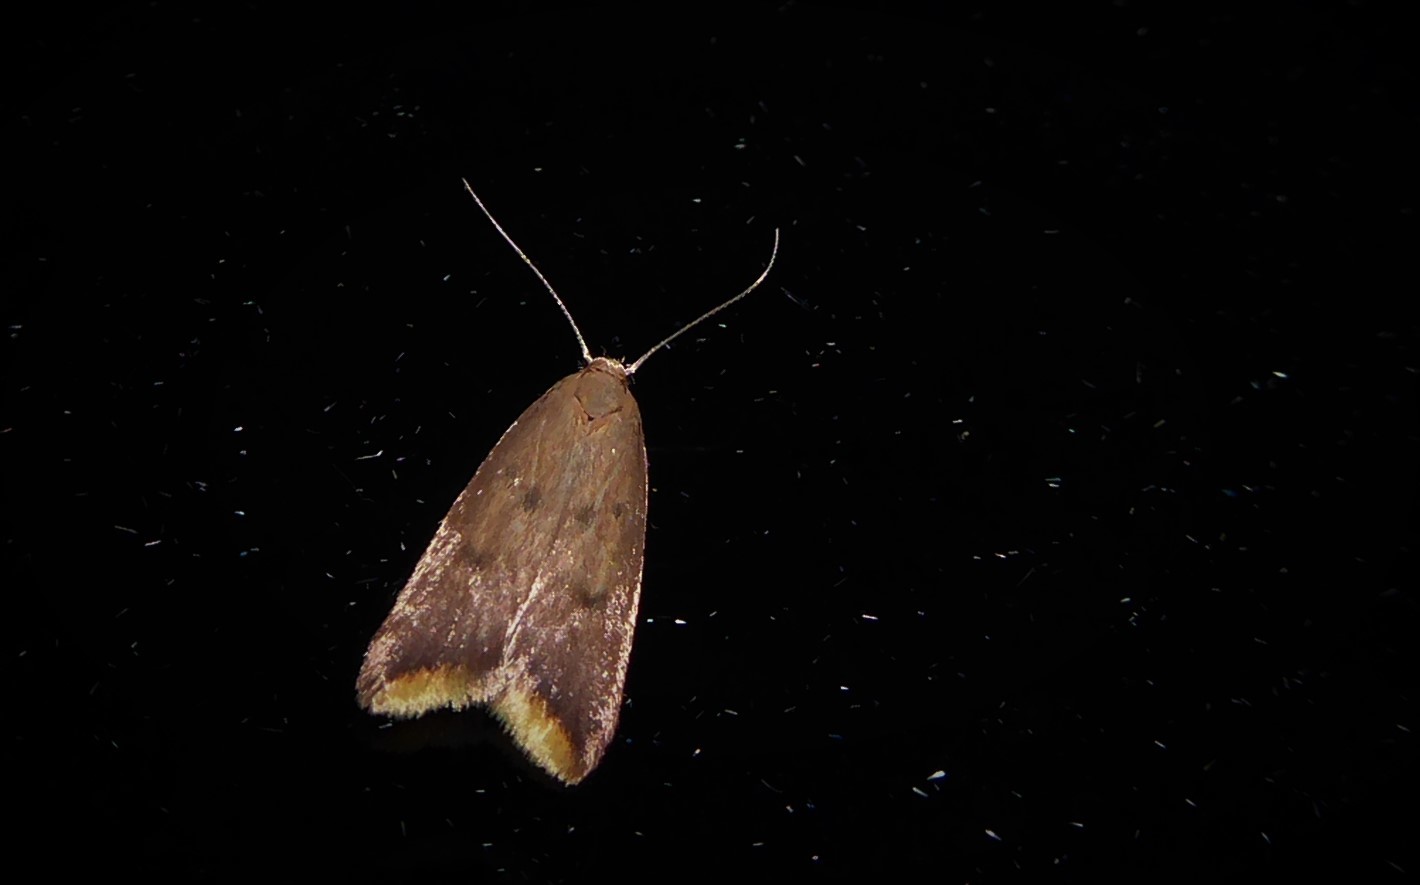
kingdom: Animalia
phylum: Arthropoda
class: Insecta
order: Lepidoptera
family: Oecophoridae
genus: Tachystola
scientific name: Tachystola acroxantha
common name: Ruddy streak
